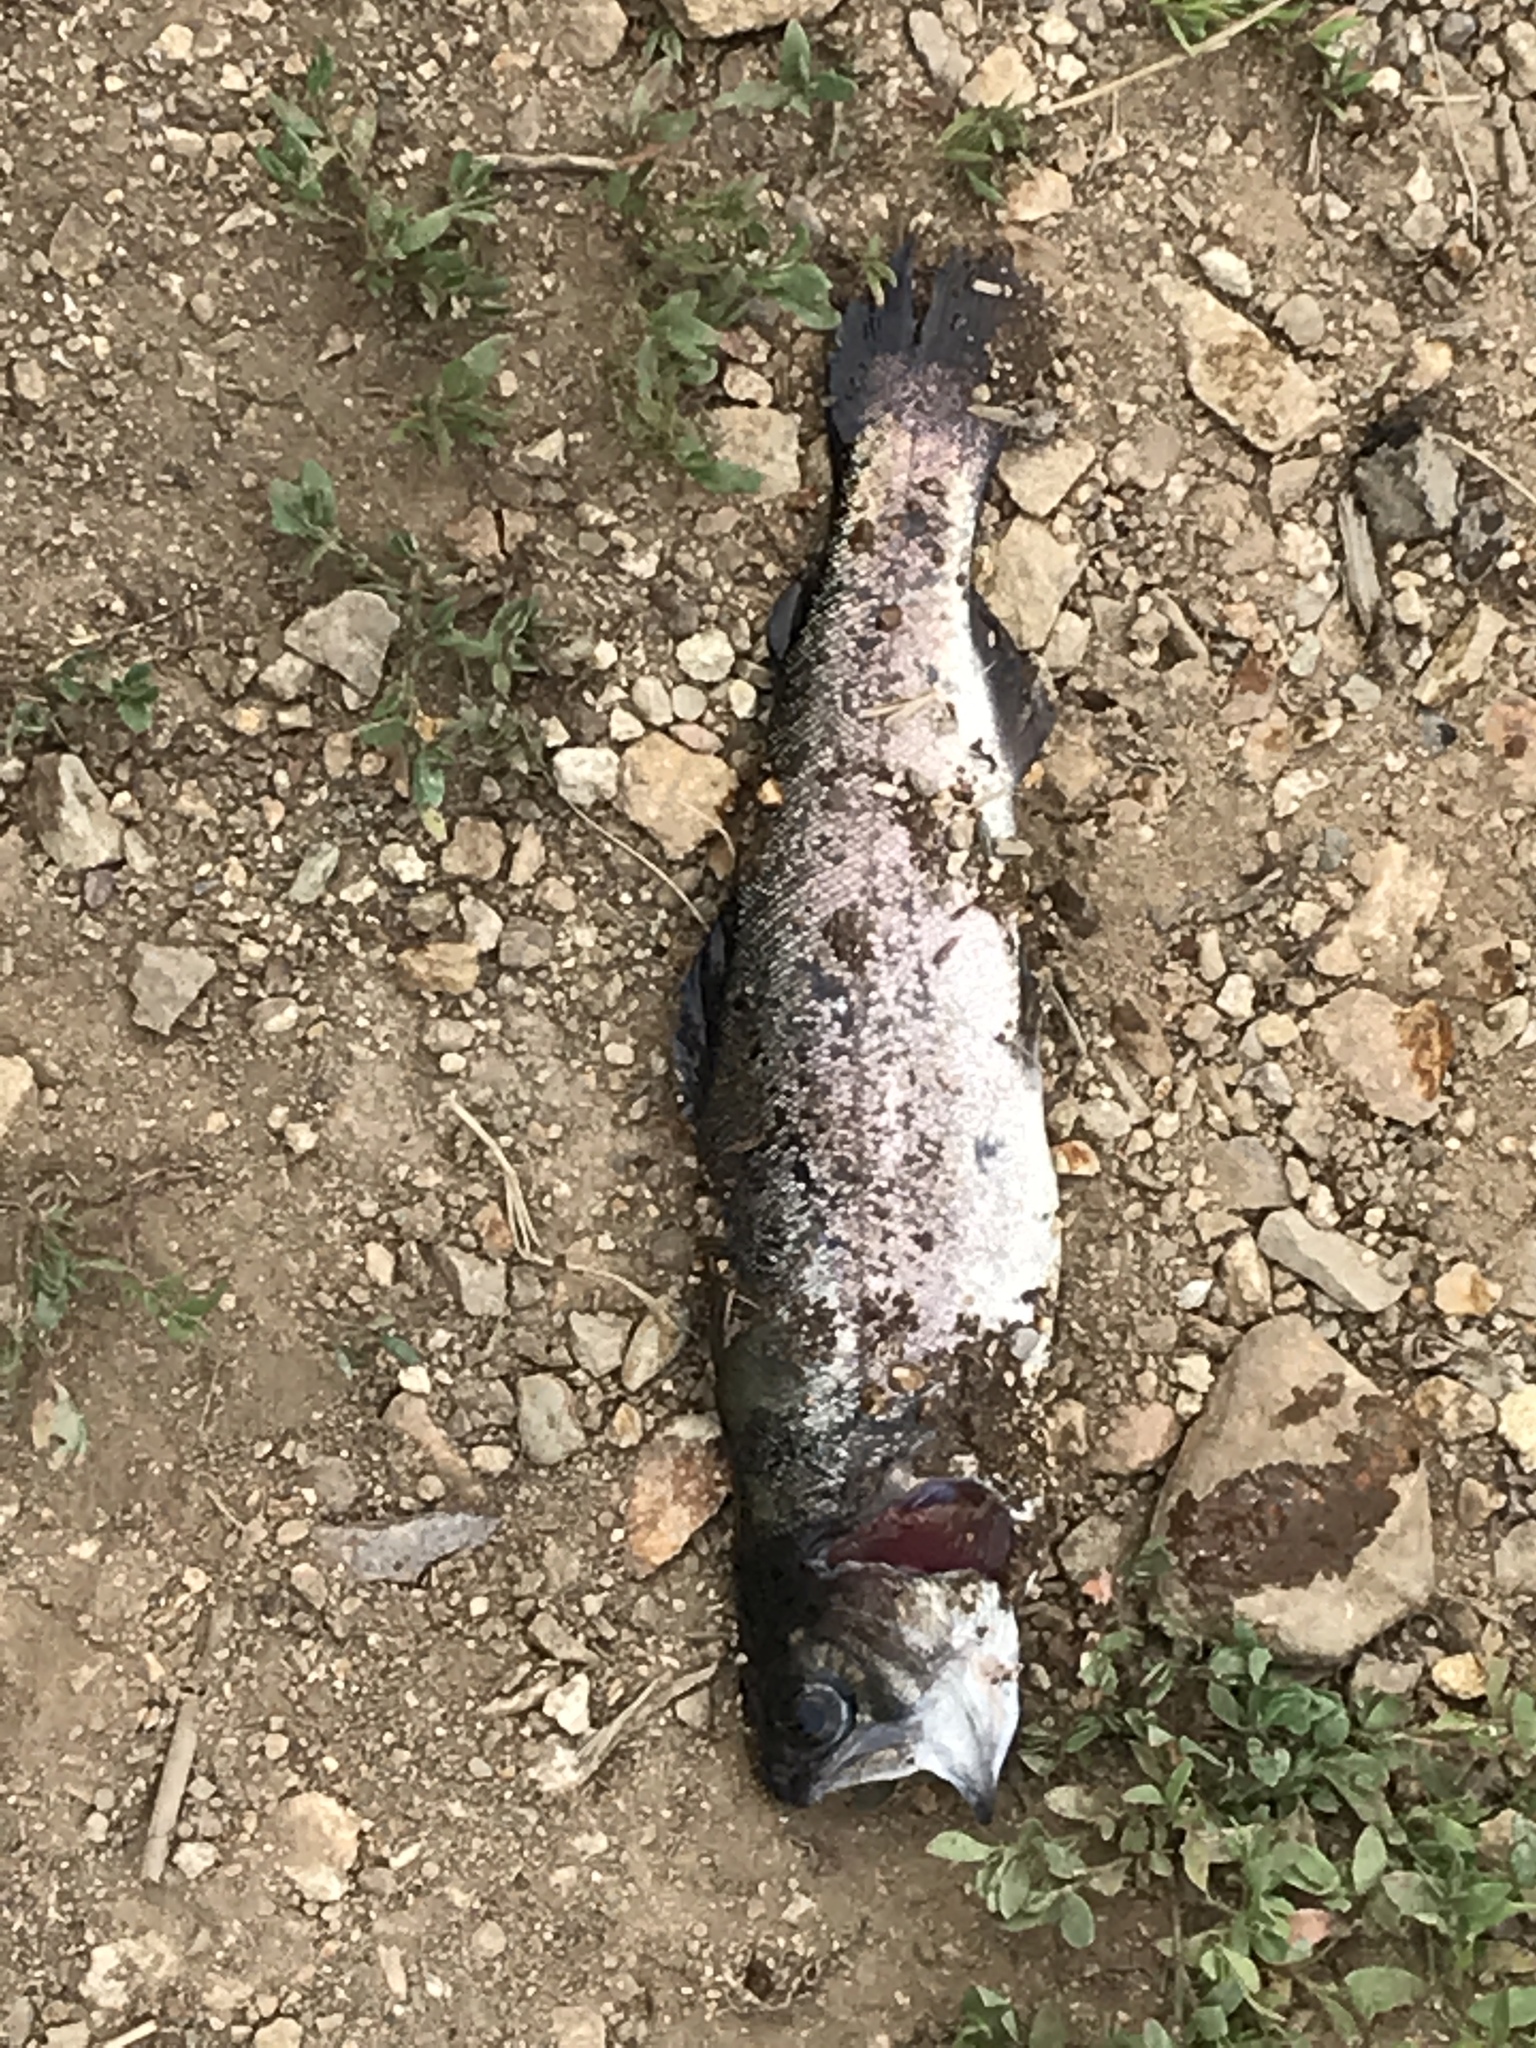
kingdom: Animalia
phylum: Chordata
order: Salmoniformes
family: Salmonidae
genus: Oncorhynchus
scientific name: Oncorhynchus mykiss
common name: Rainbow trout
